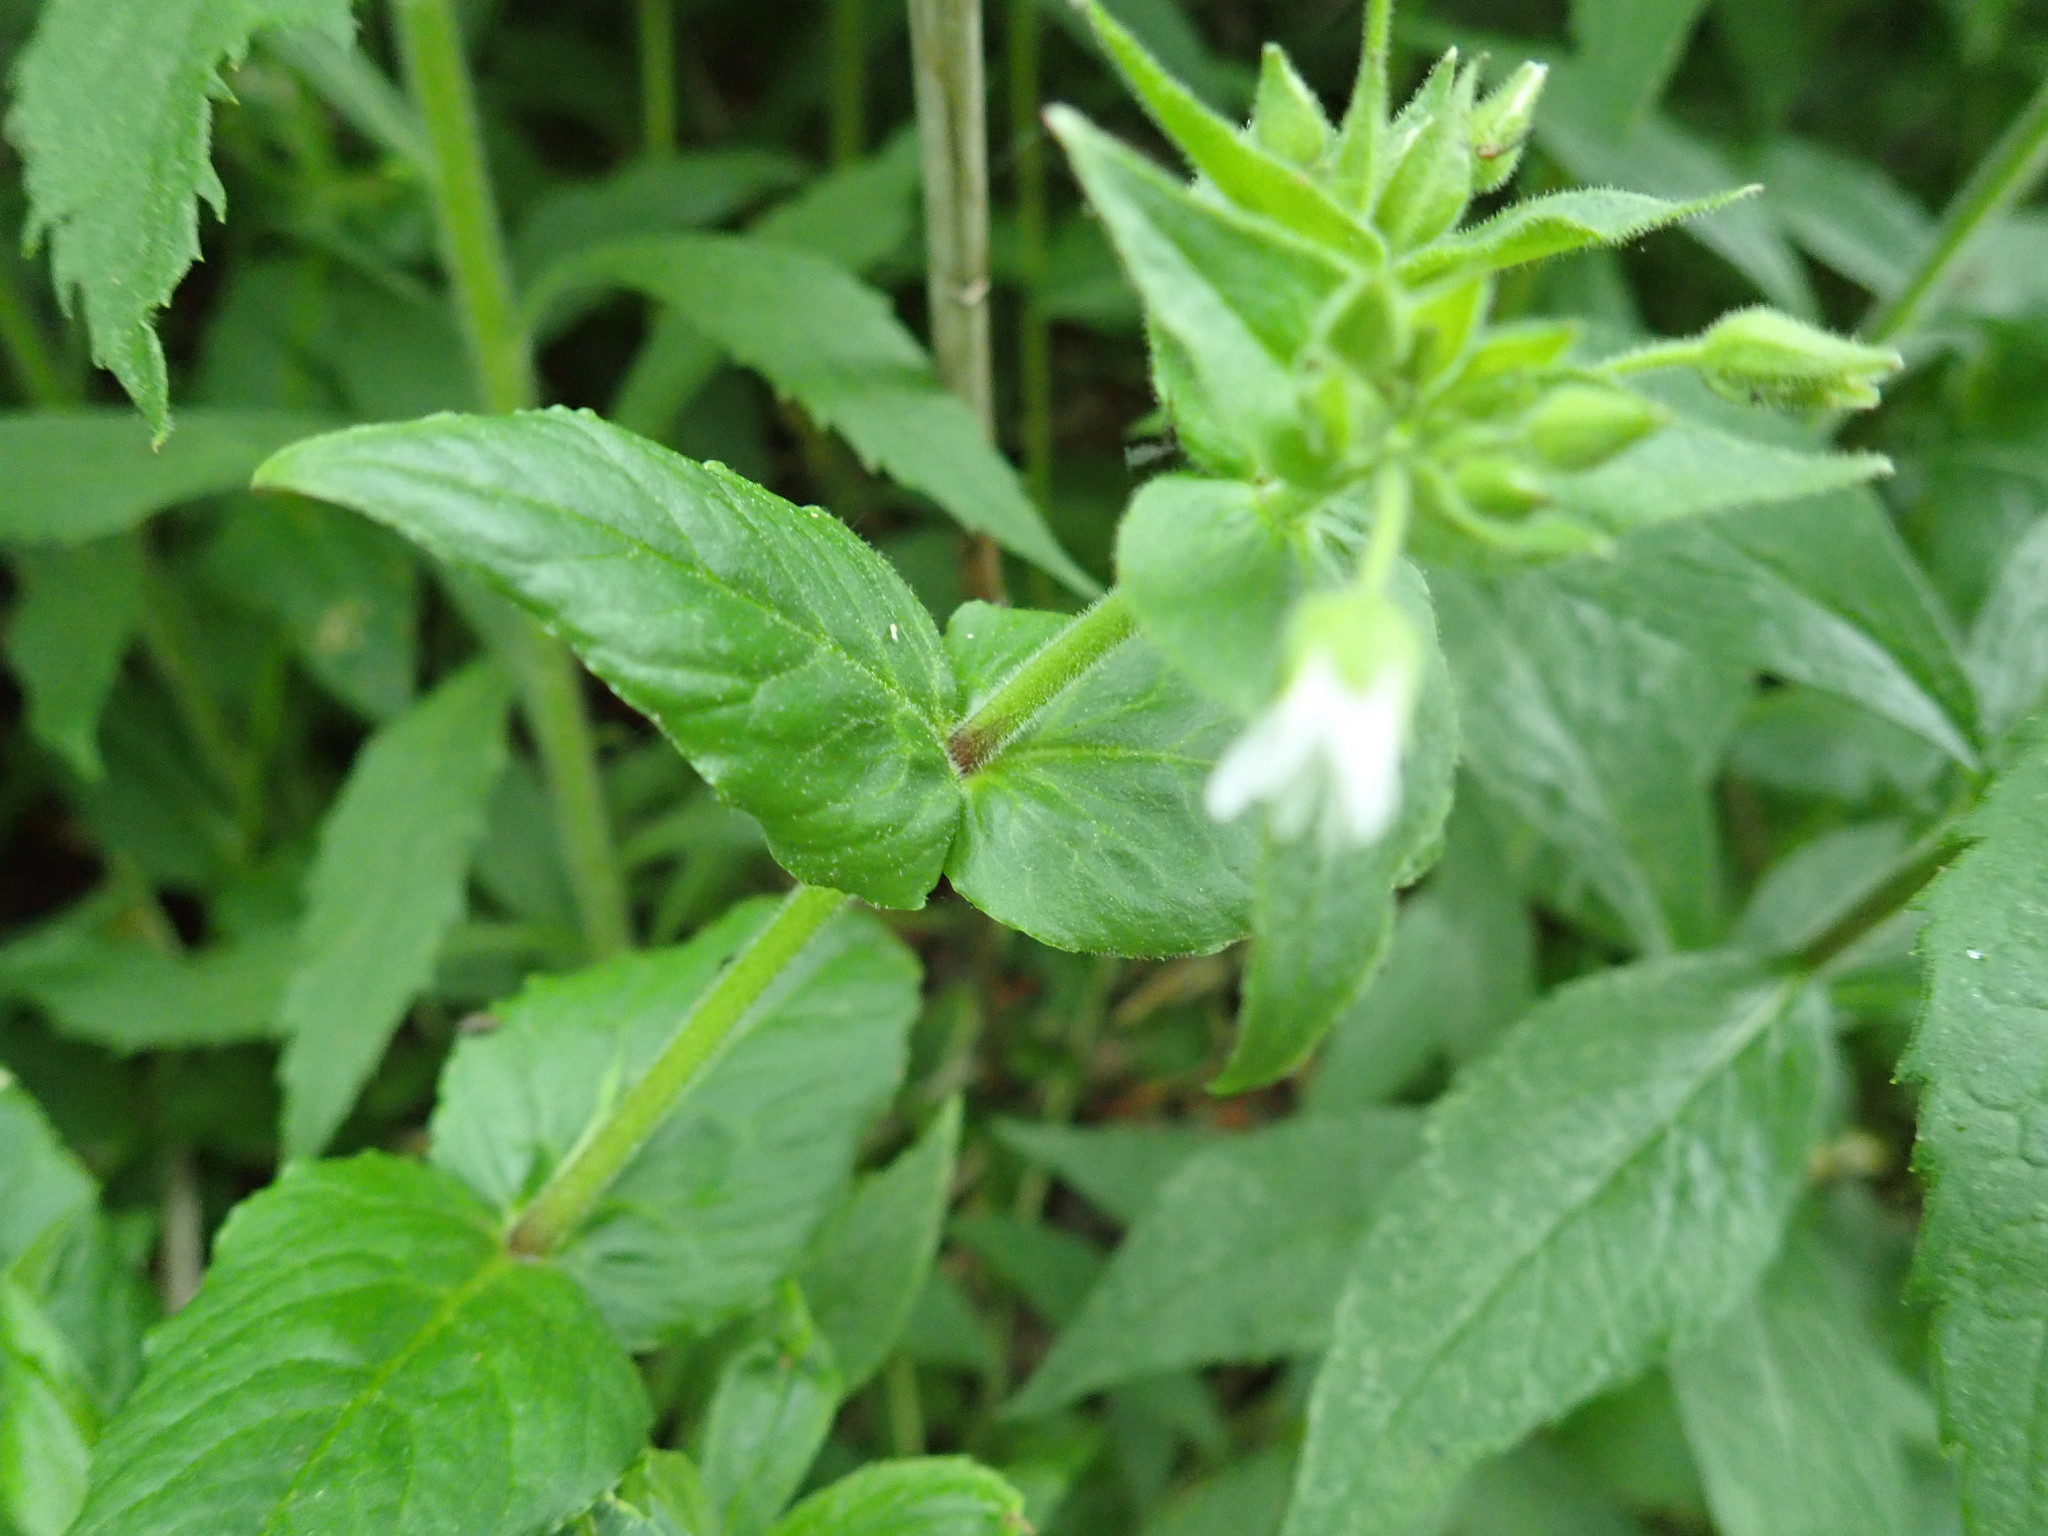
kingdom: Plantae
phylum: Tracheophyta
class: Magnoliopsida
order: Caryophyllales
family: Caryophyllaceae
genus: Stellaria
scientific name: Stellaria media
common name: Common chickweed
